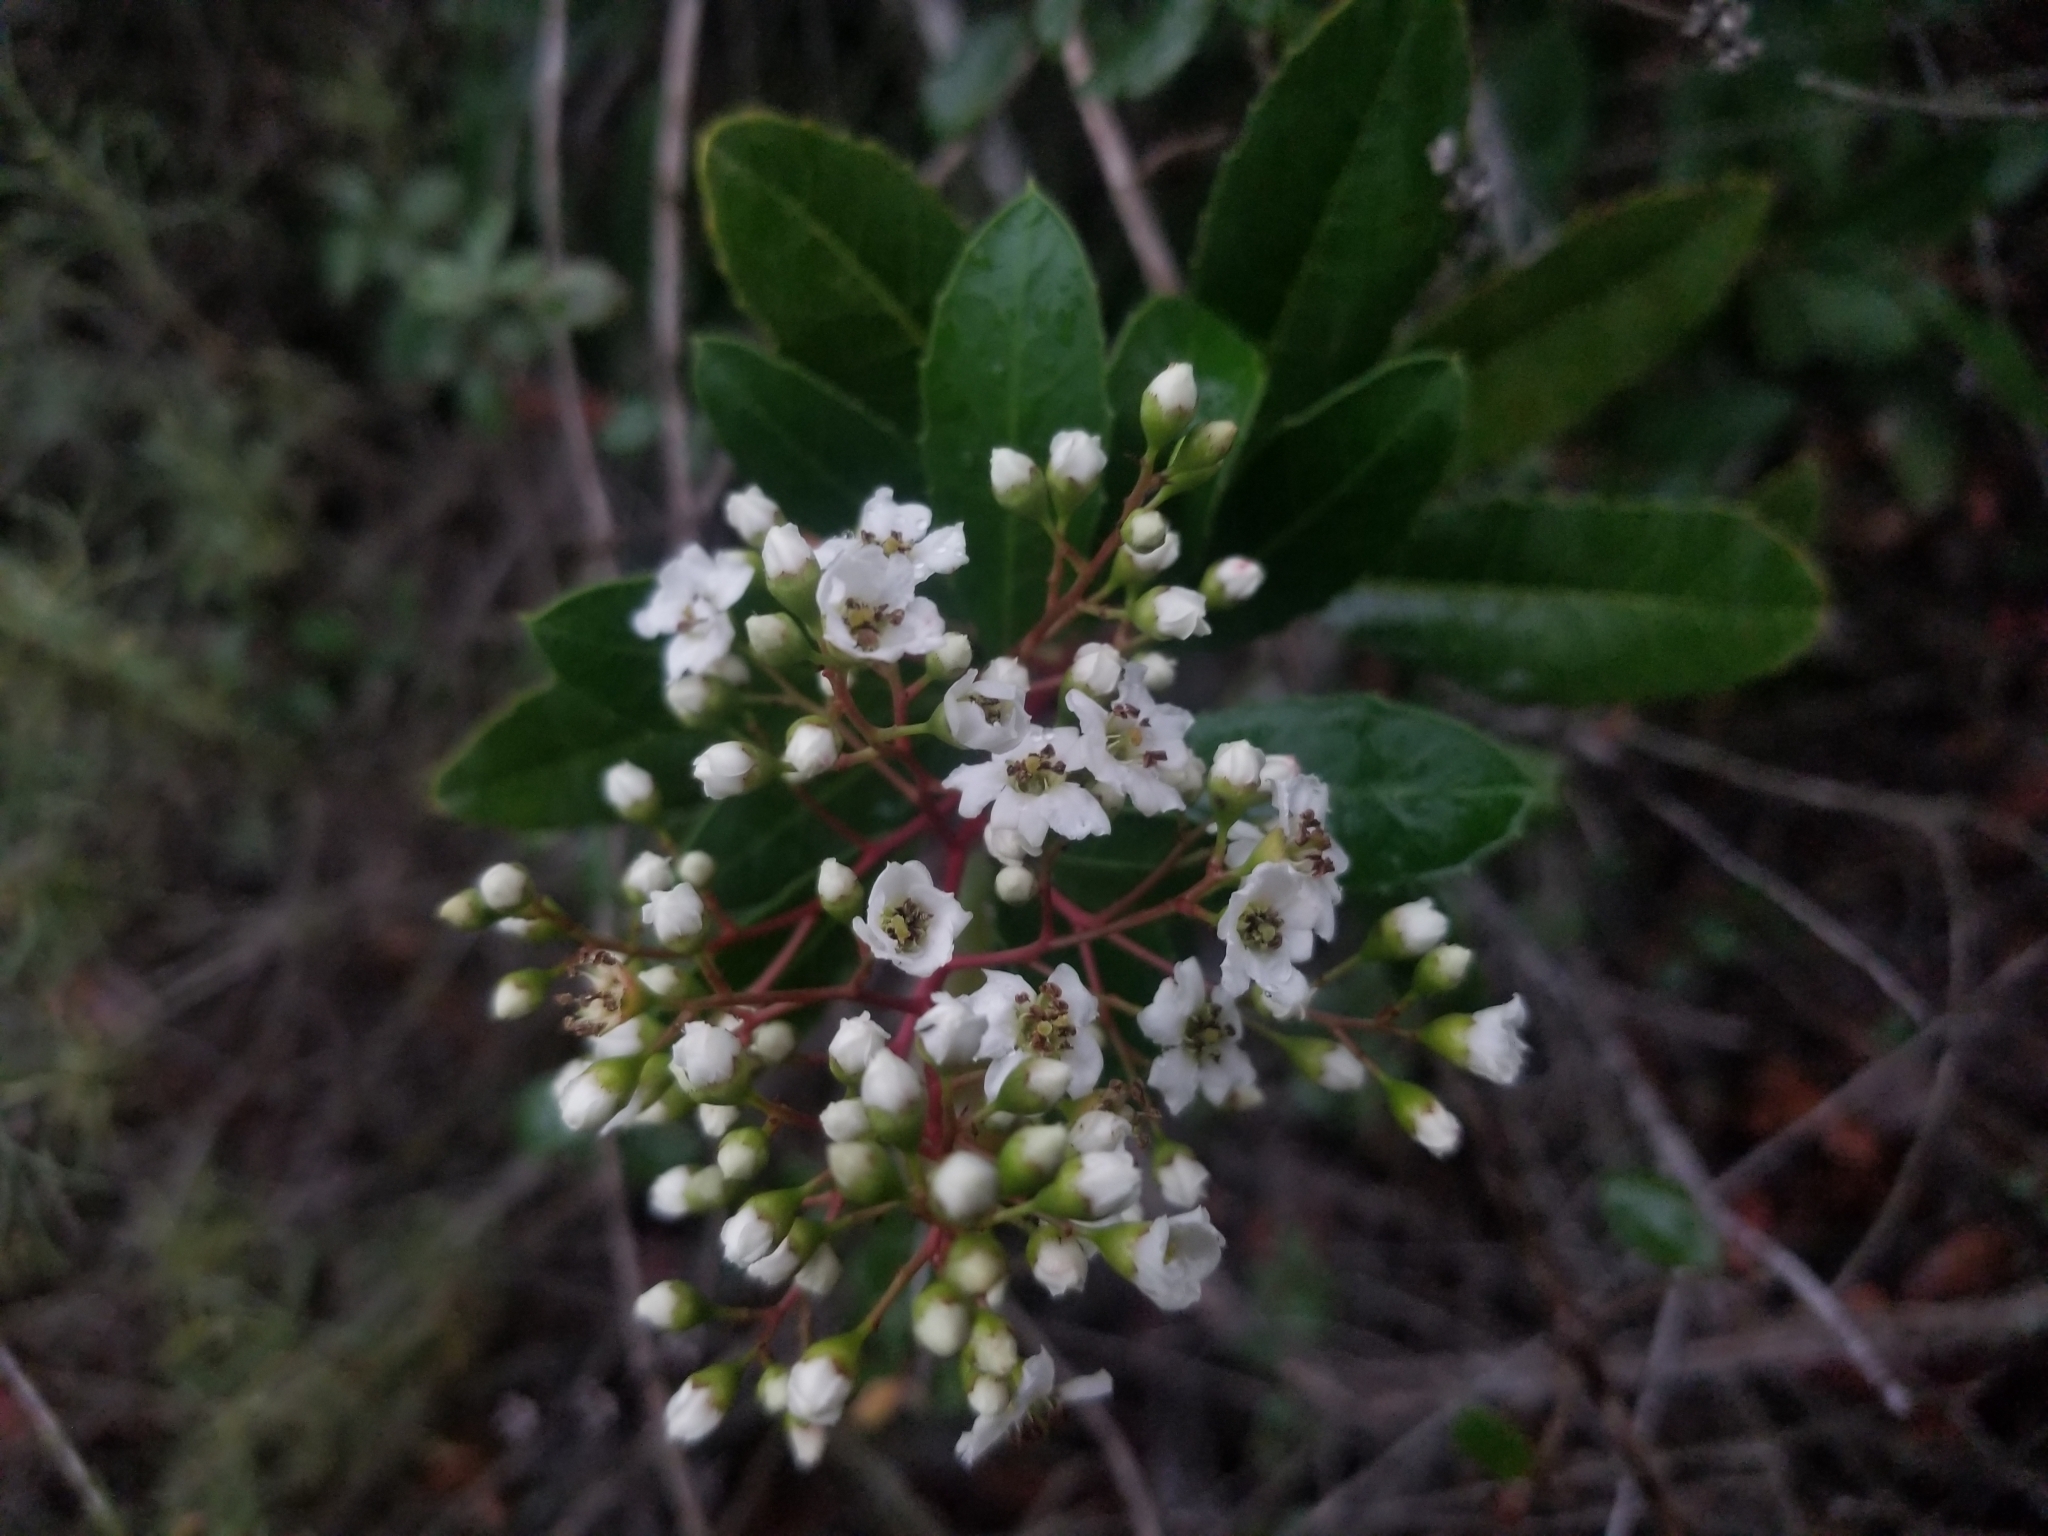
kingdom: Plantae
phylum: Tracheophyta
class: Magnoliopsida
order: Rosales
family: Rosaceae
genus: Heteromeles
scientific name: Heteromeles arbutifolia
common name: California-holly
